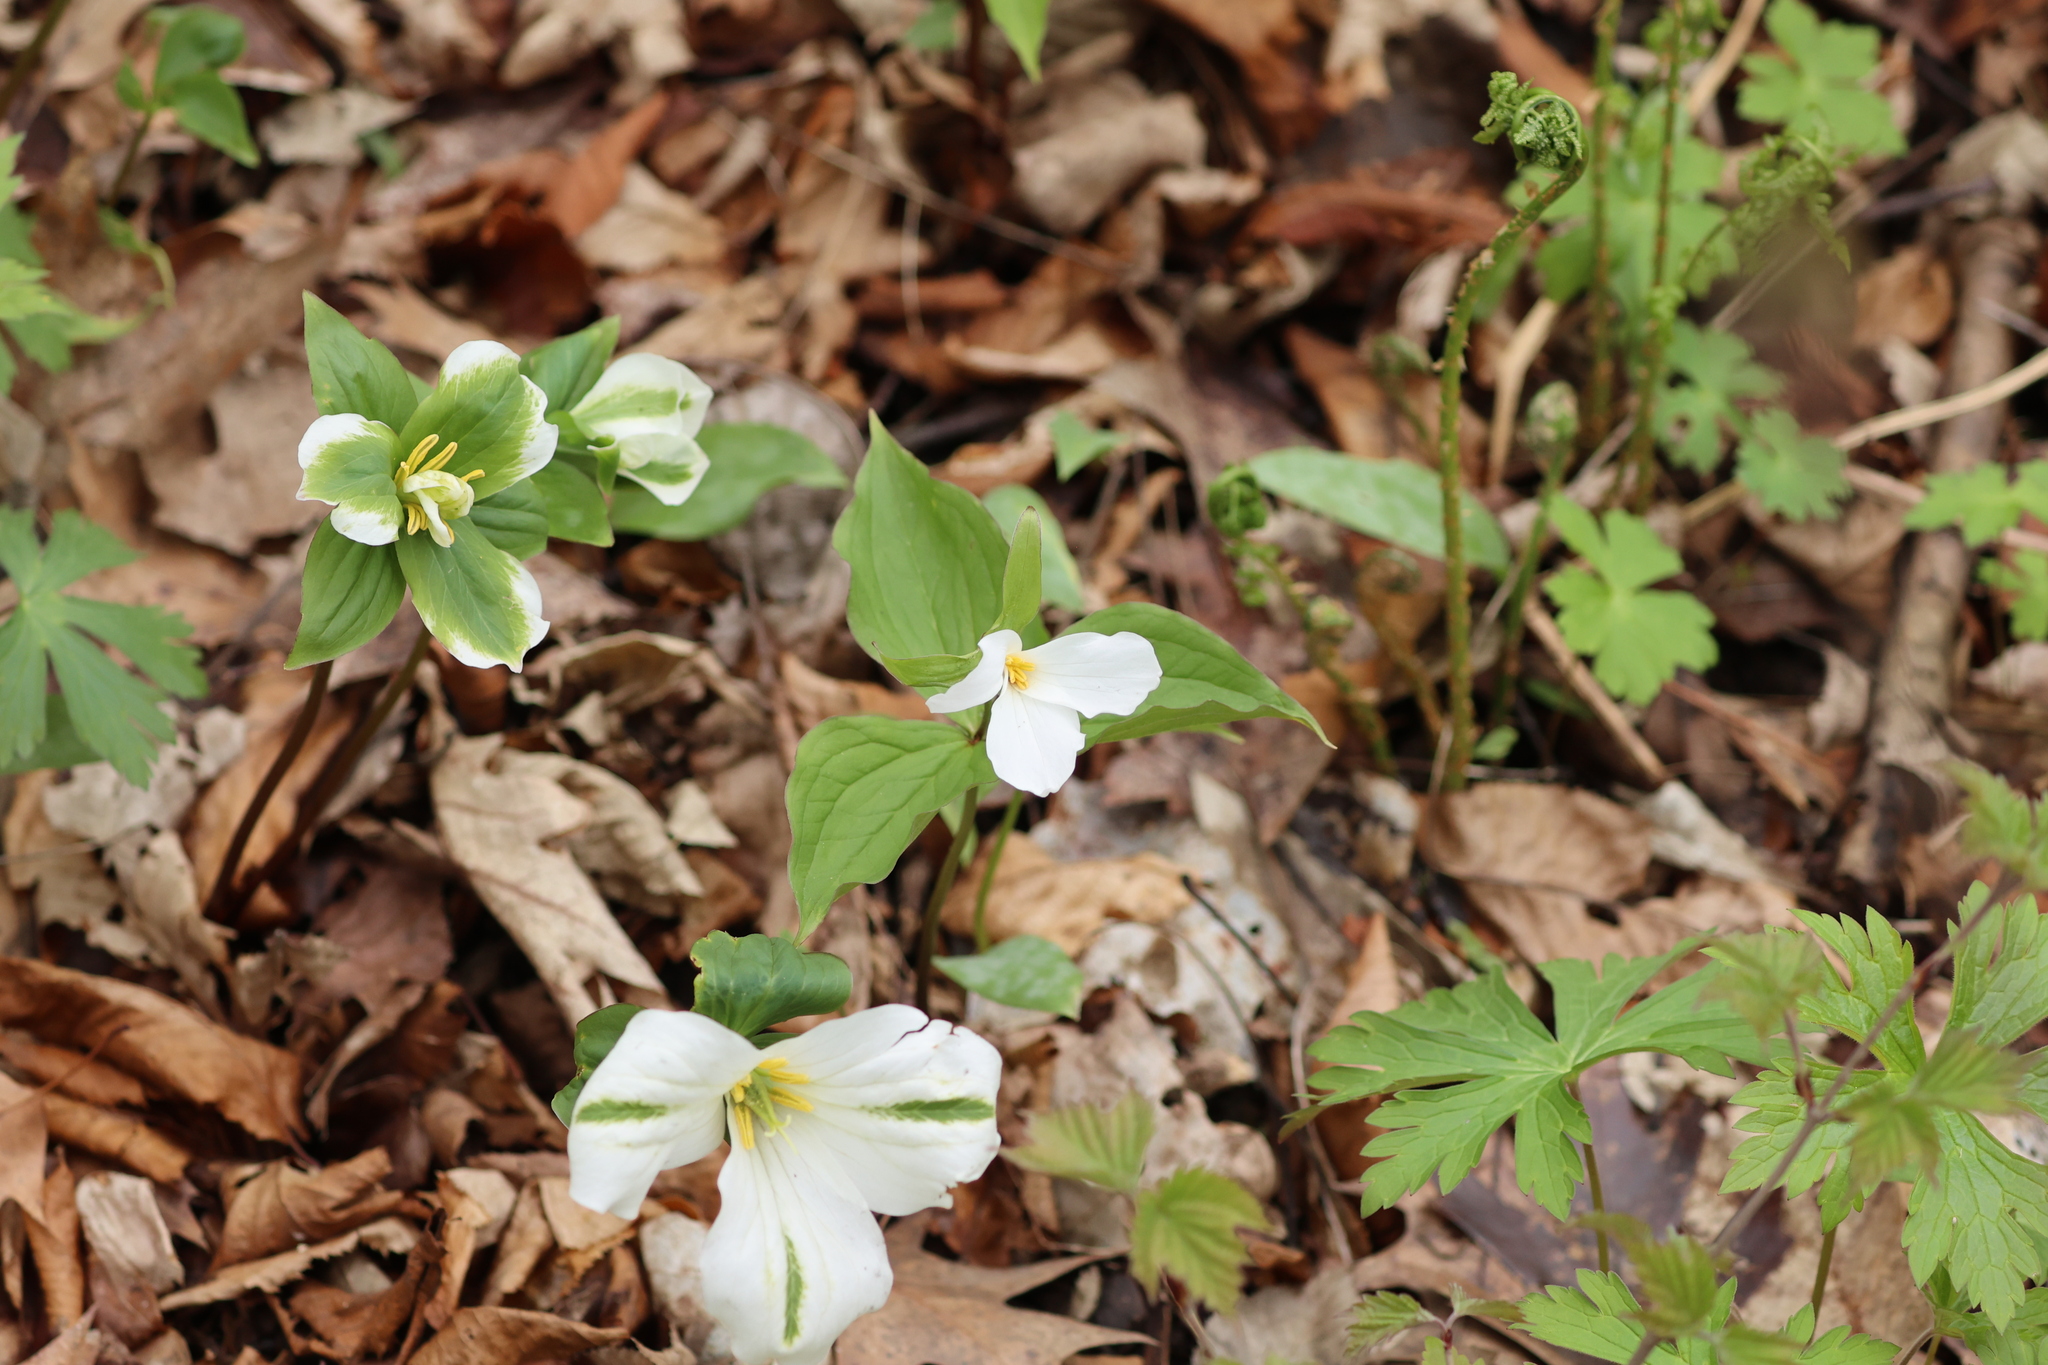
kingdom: Plantae
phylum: Tracheophyta
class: Liliopsida
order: Liliales
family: Melanthiaceae
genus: Trillium
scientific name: Trillium grandiflorum
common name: Great white trillium
